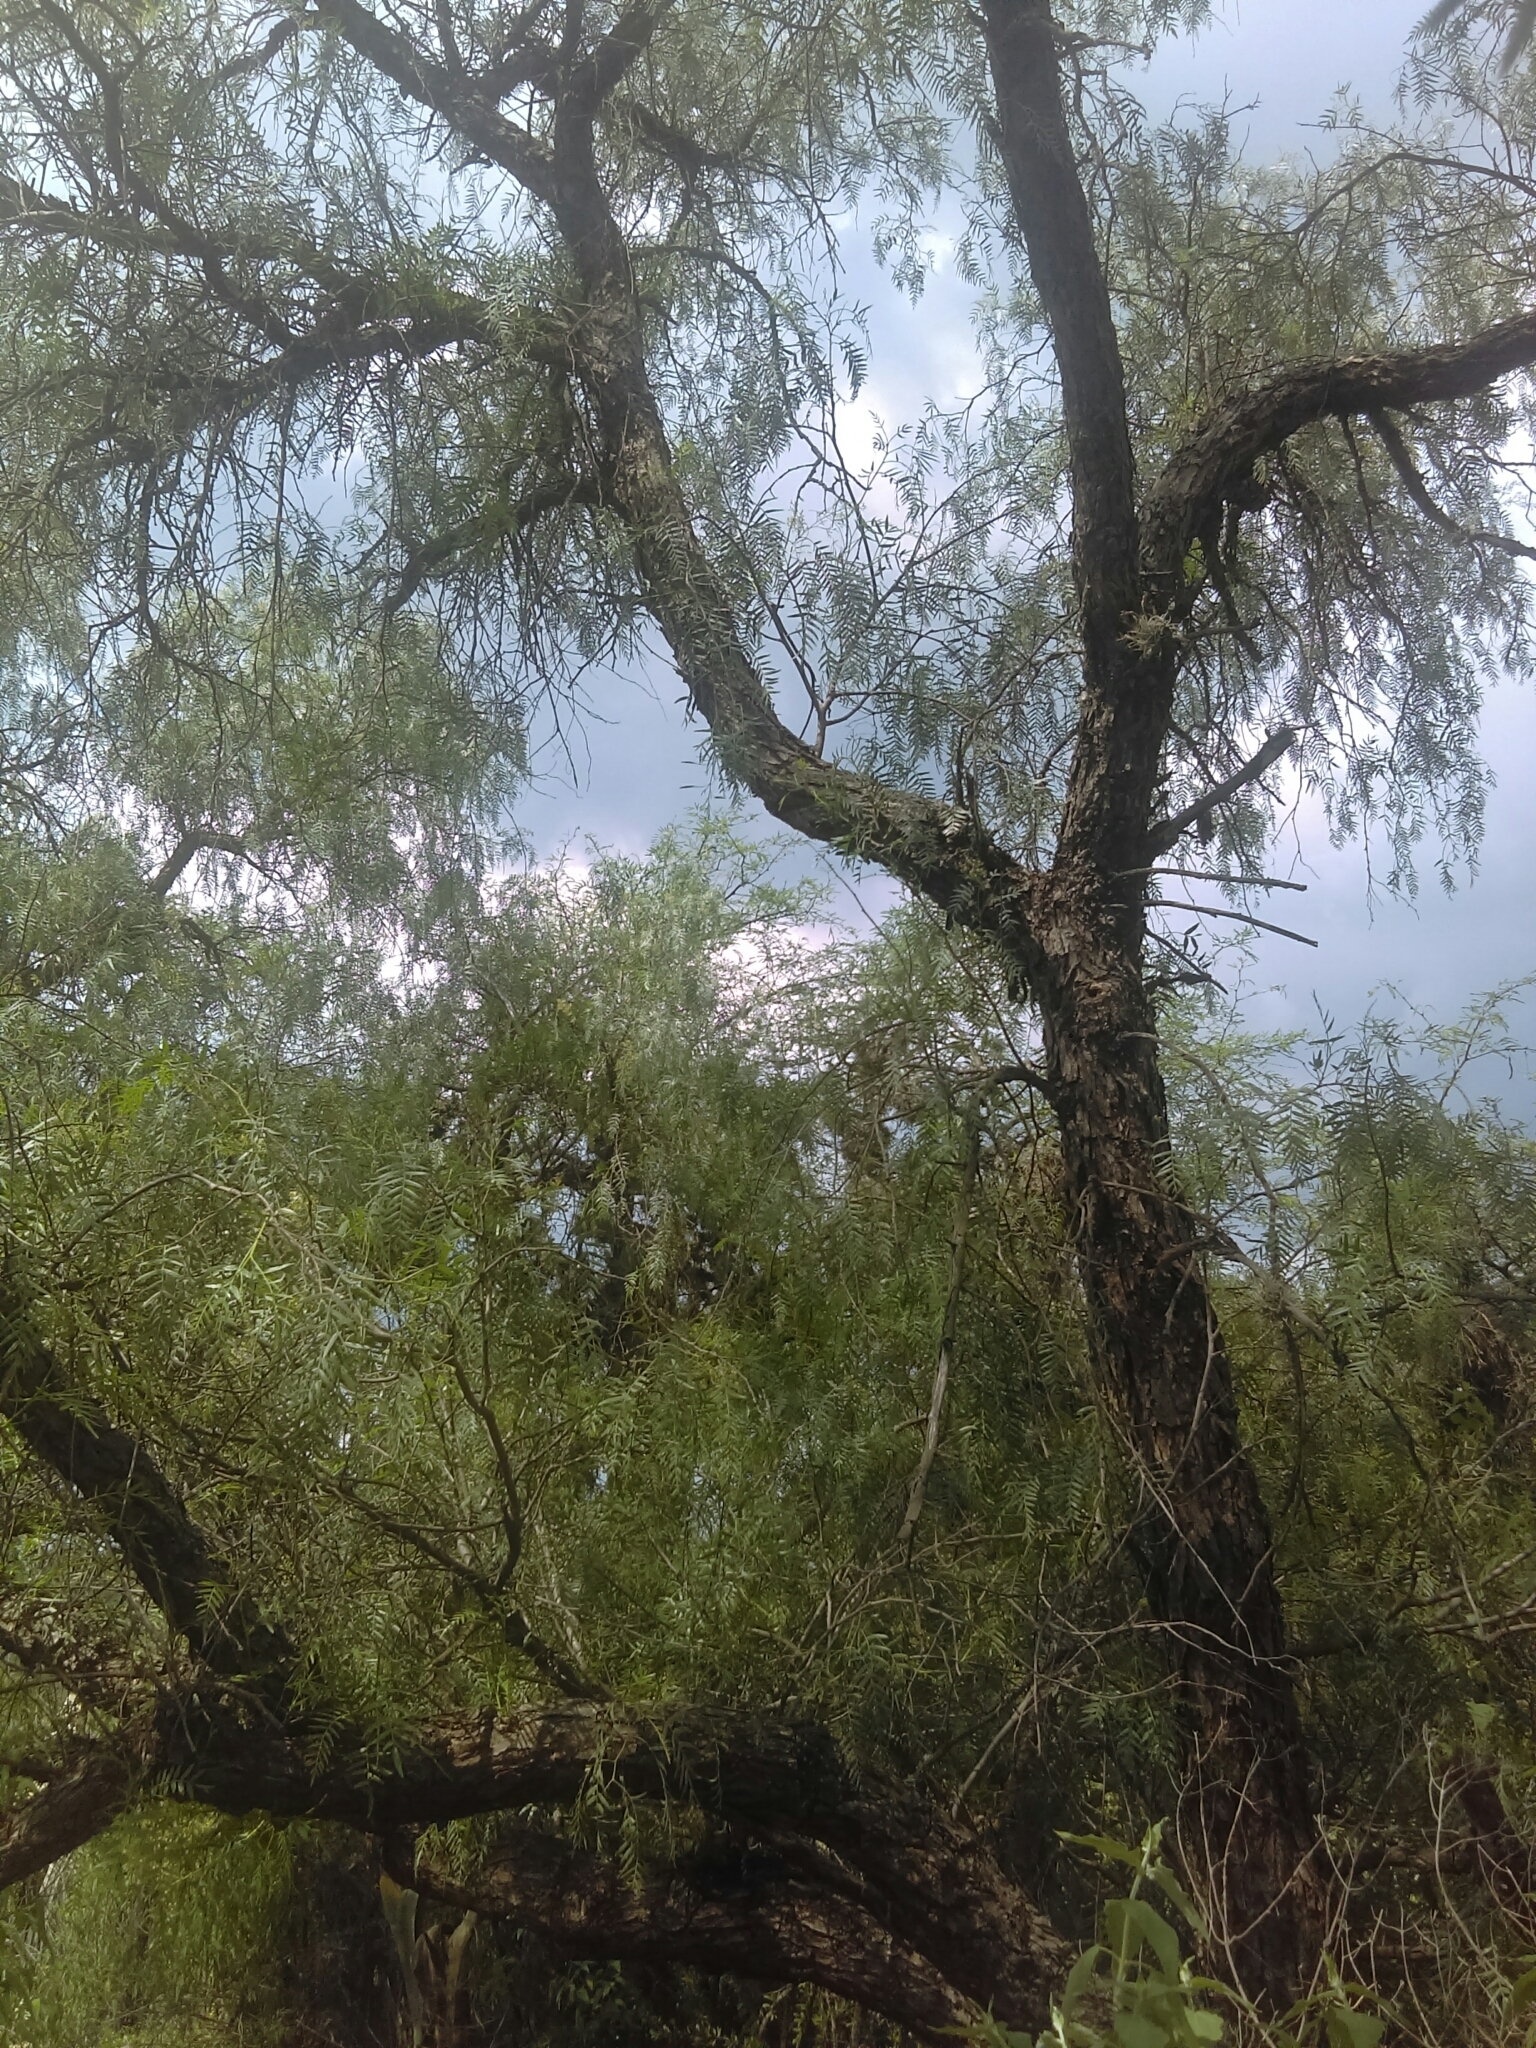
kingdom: Plantae
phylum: Tracheophyta
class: Magnoliopsida
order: Sapindales
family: Anacardiaceae
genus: Schinus
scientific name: Schinus molle
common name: Peruvian peppertree
